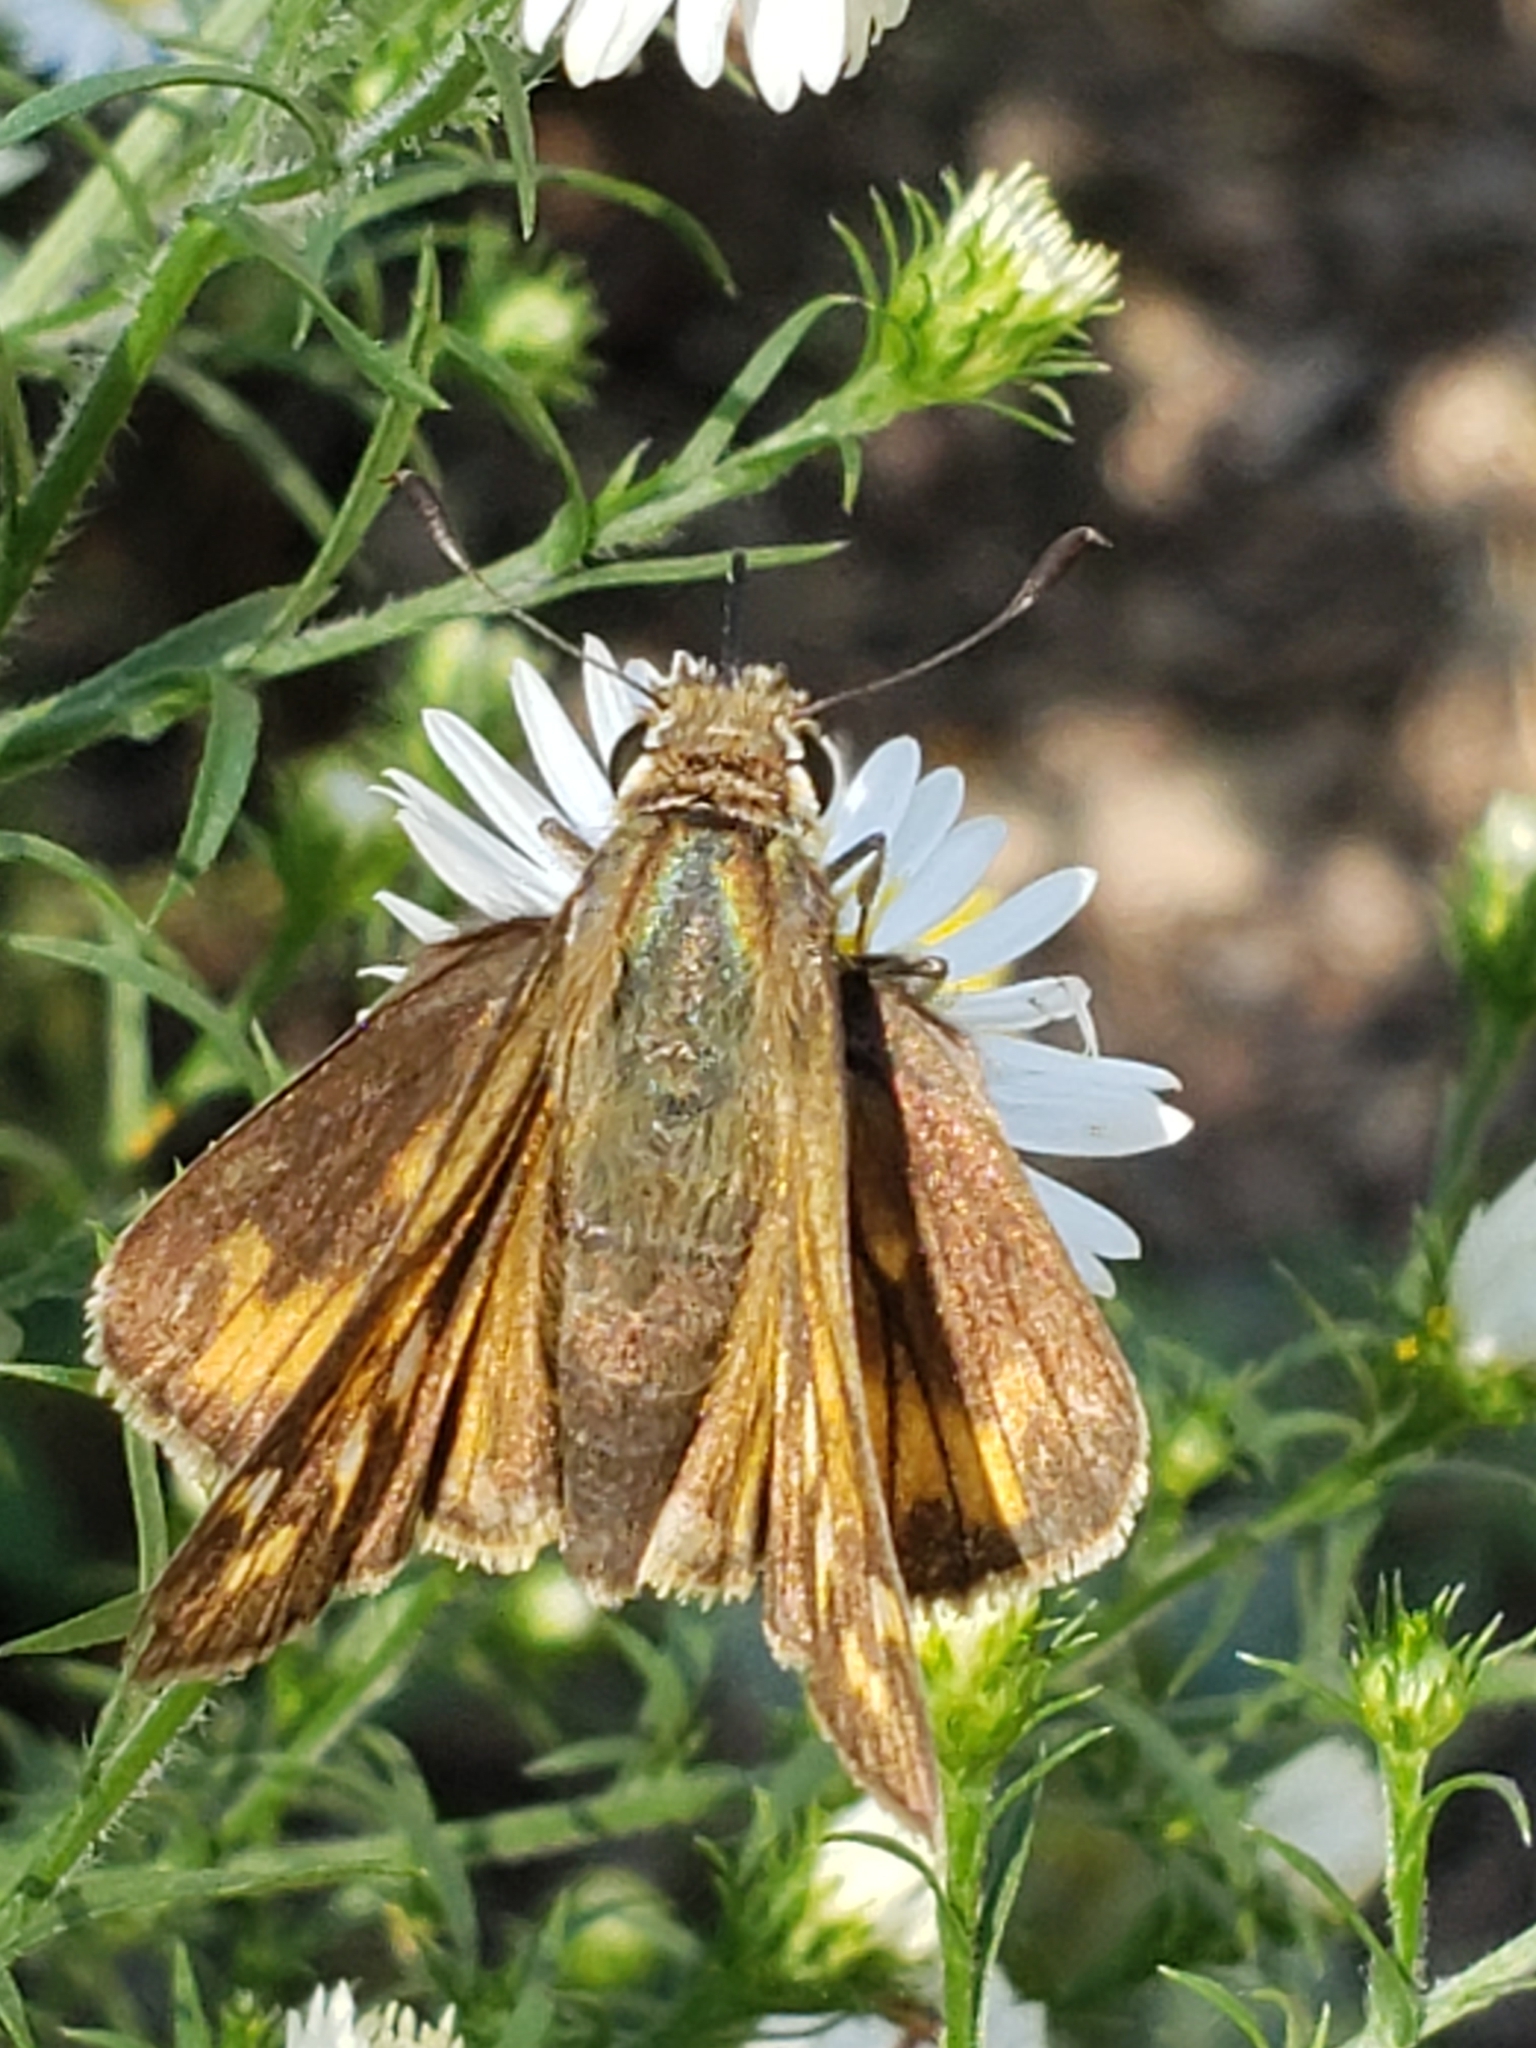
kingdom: Animalia
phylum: Arthropoda
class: Insecta
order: Lepidoptera
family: Hesperiidae
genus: Atalopedes
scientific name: Atalopedes
